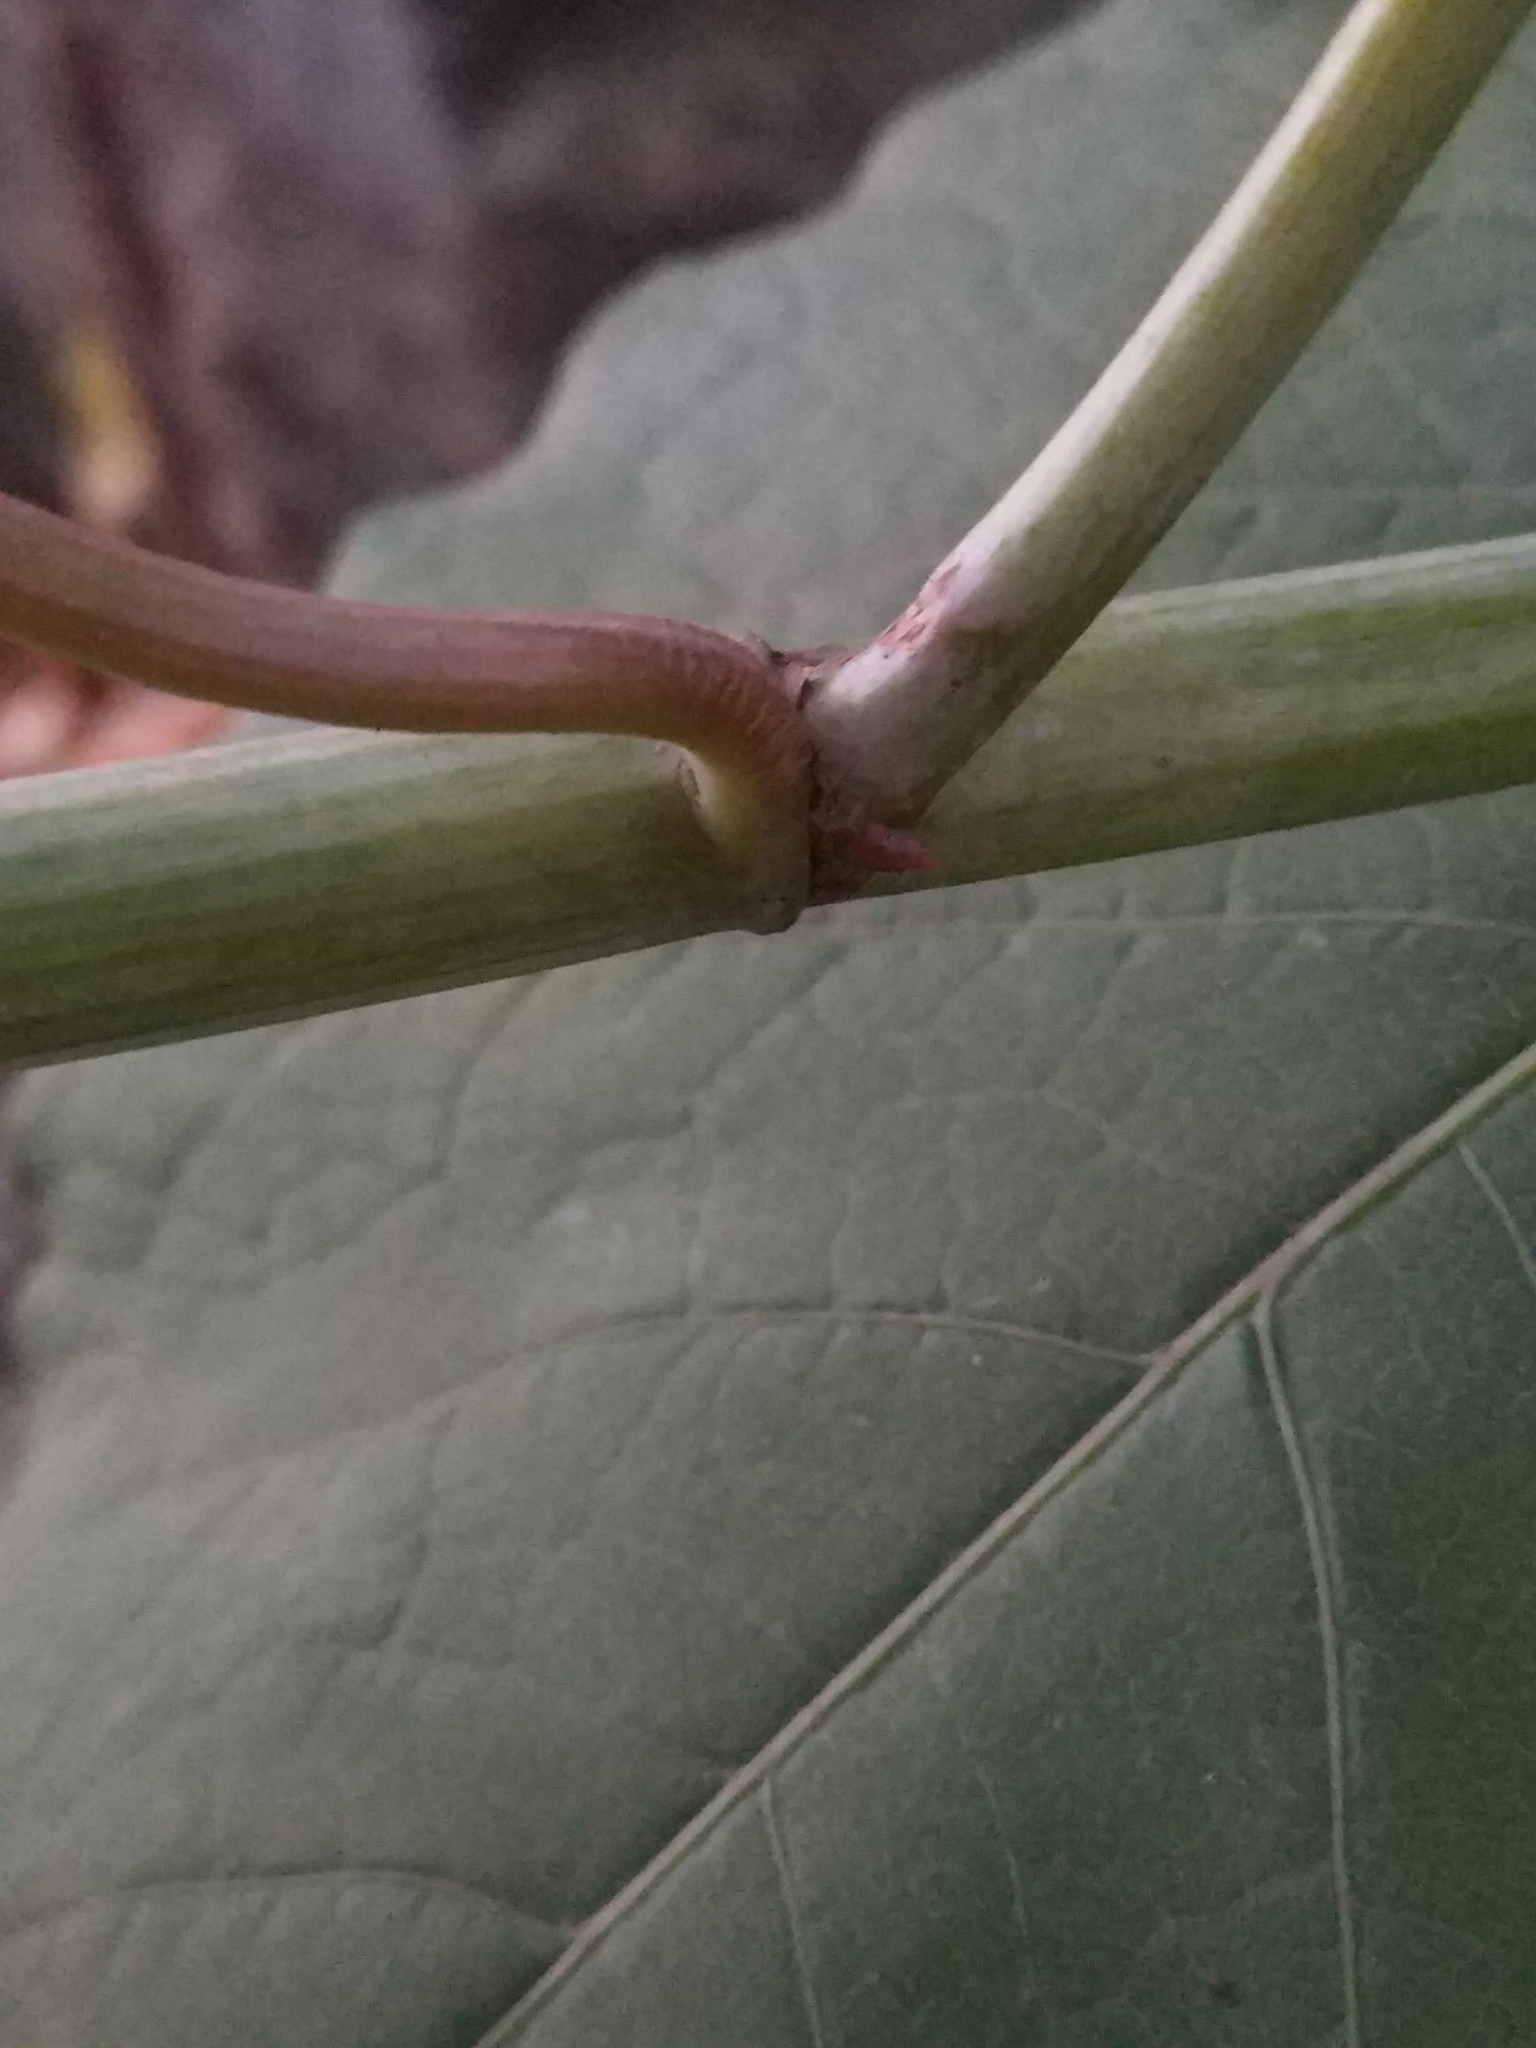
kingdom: Plantae
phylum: Tracheophyta
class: Magnoliopsida
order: Caryophyllales
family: Polygonaceae
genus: Reynoutria
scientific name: Reynoutria bohemica
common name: Bohemian knotweed
